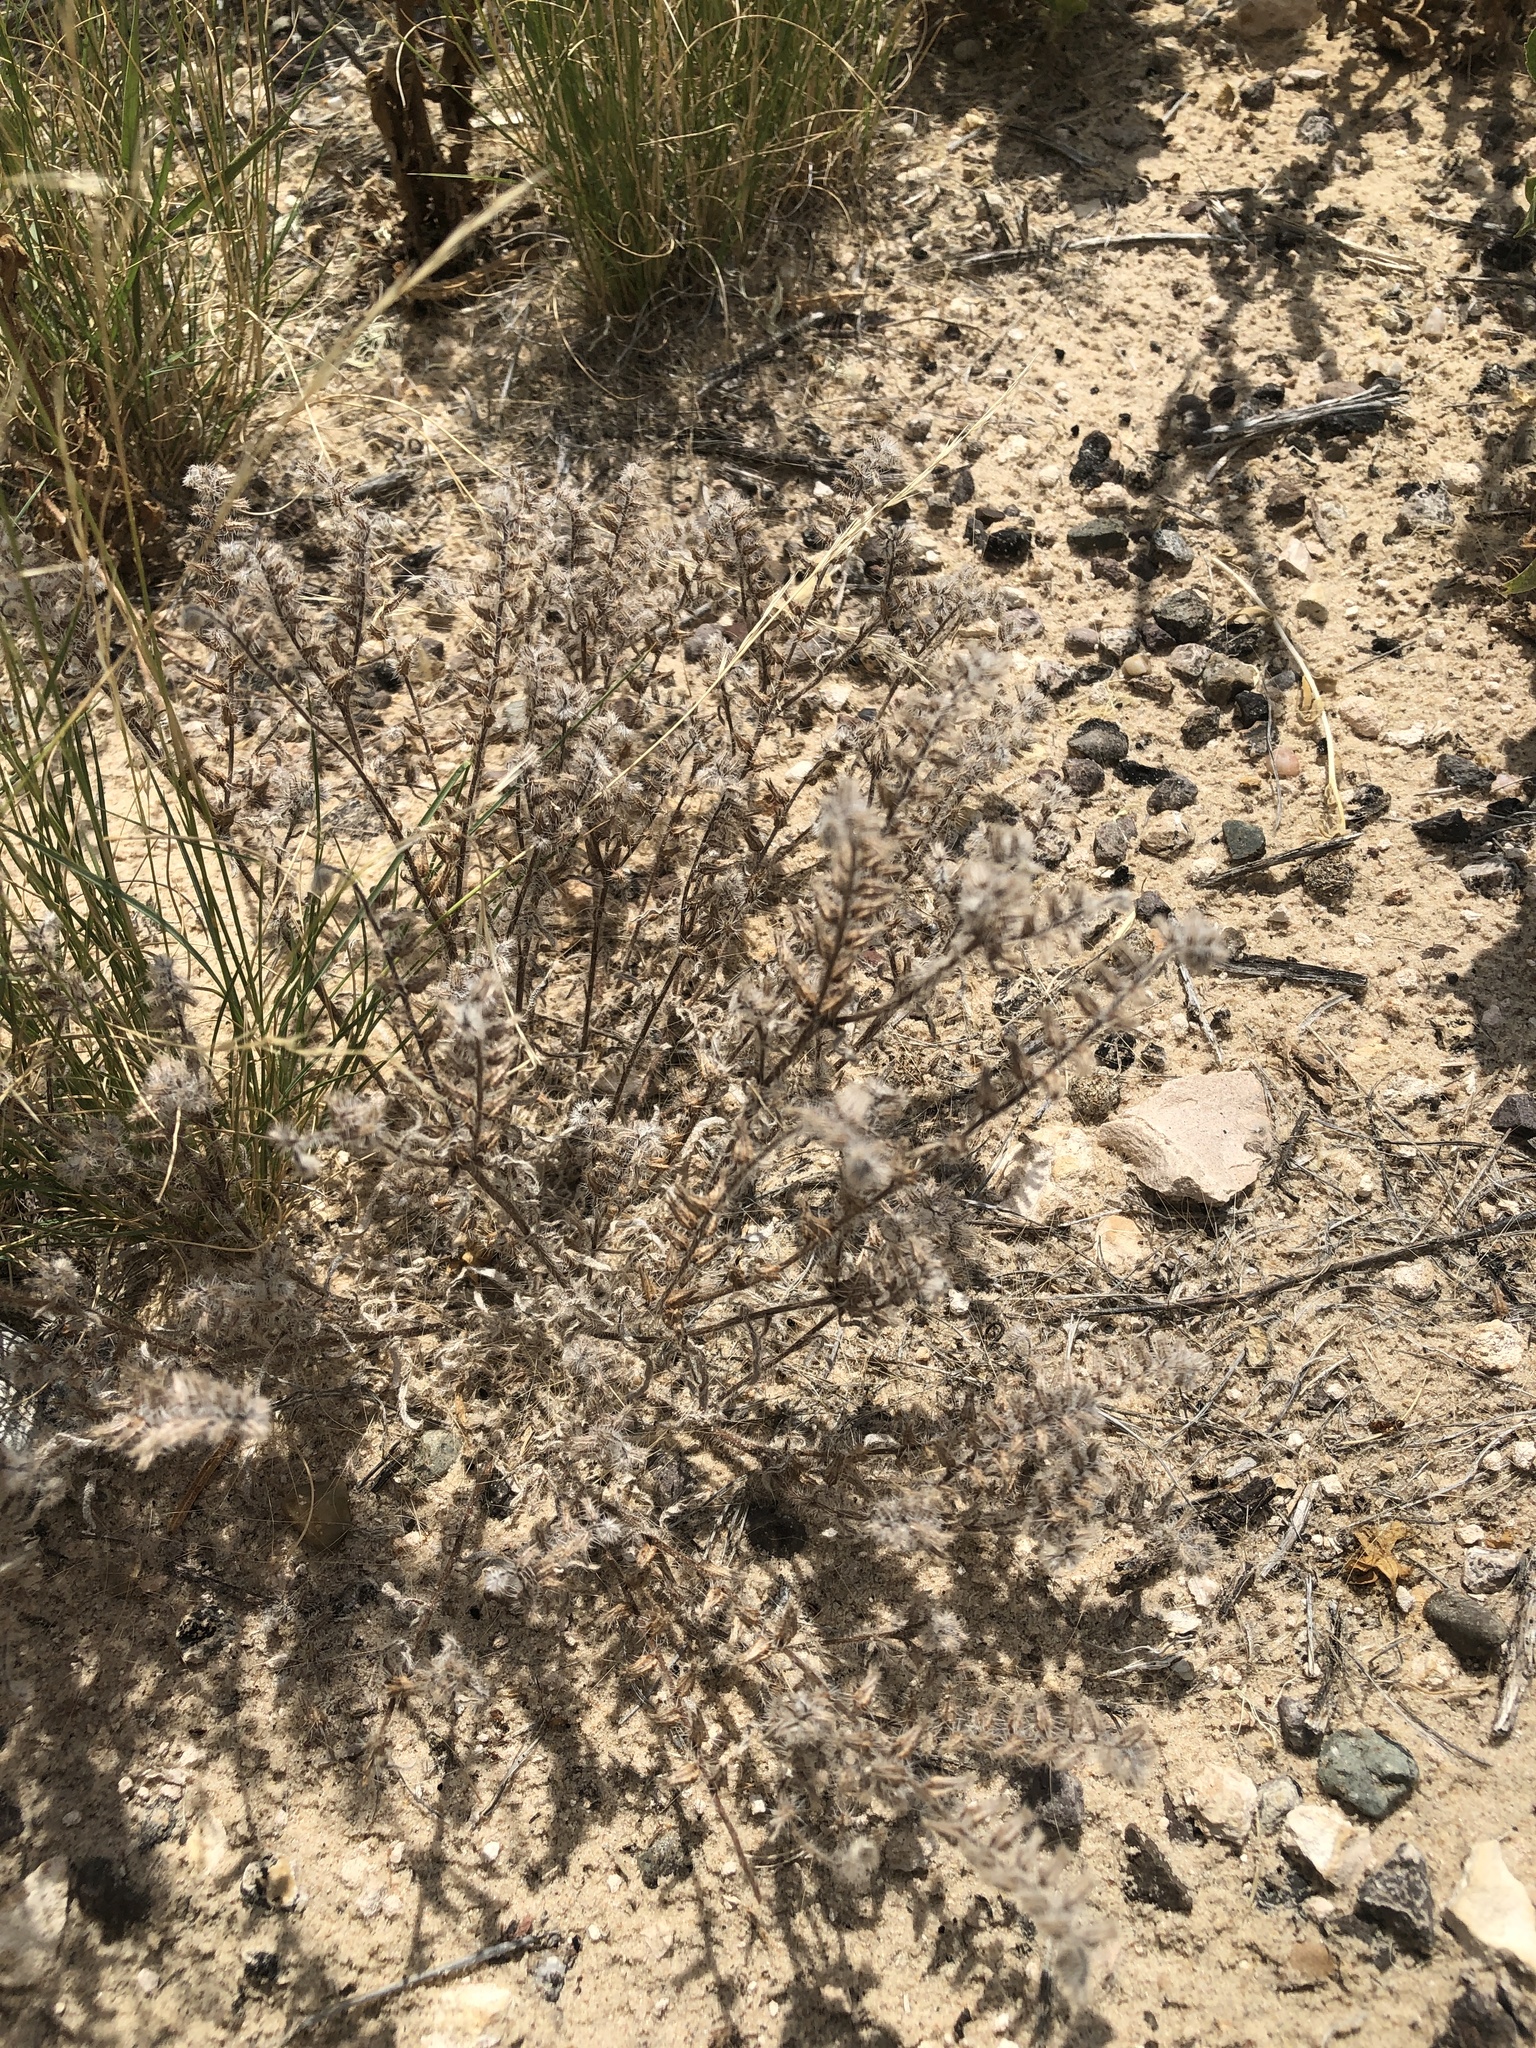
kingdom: Plantae
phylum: Tracheophyta
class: Magnoliopsida
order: Boraginales
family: Boraginaceae
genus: Cryptantha
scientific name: Cryptantha crassisepala
